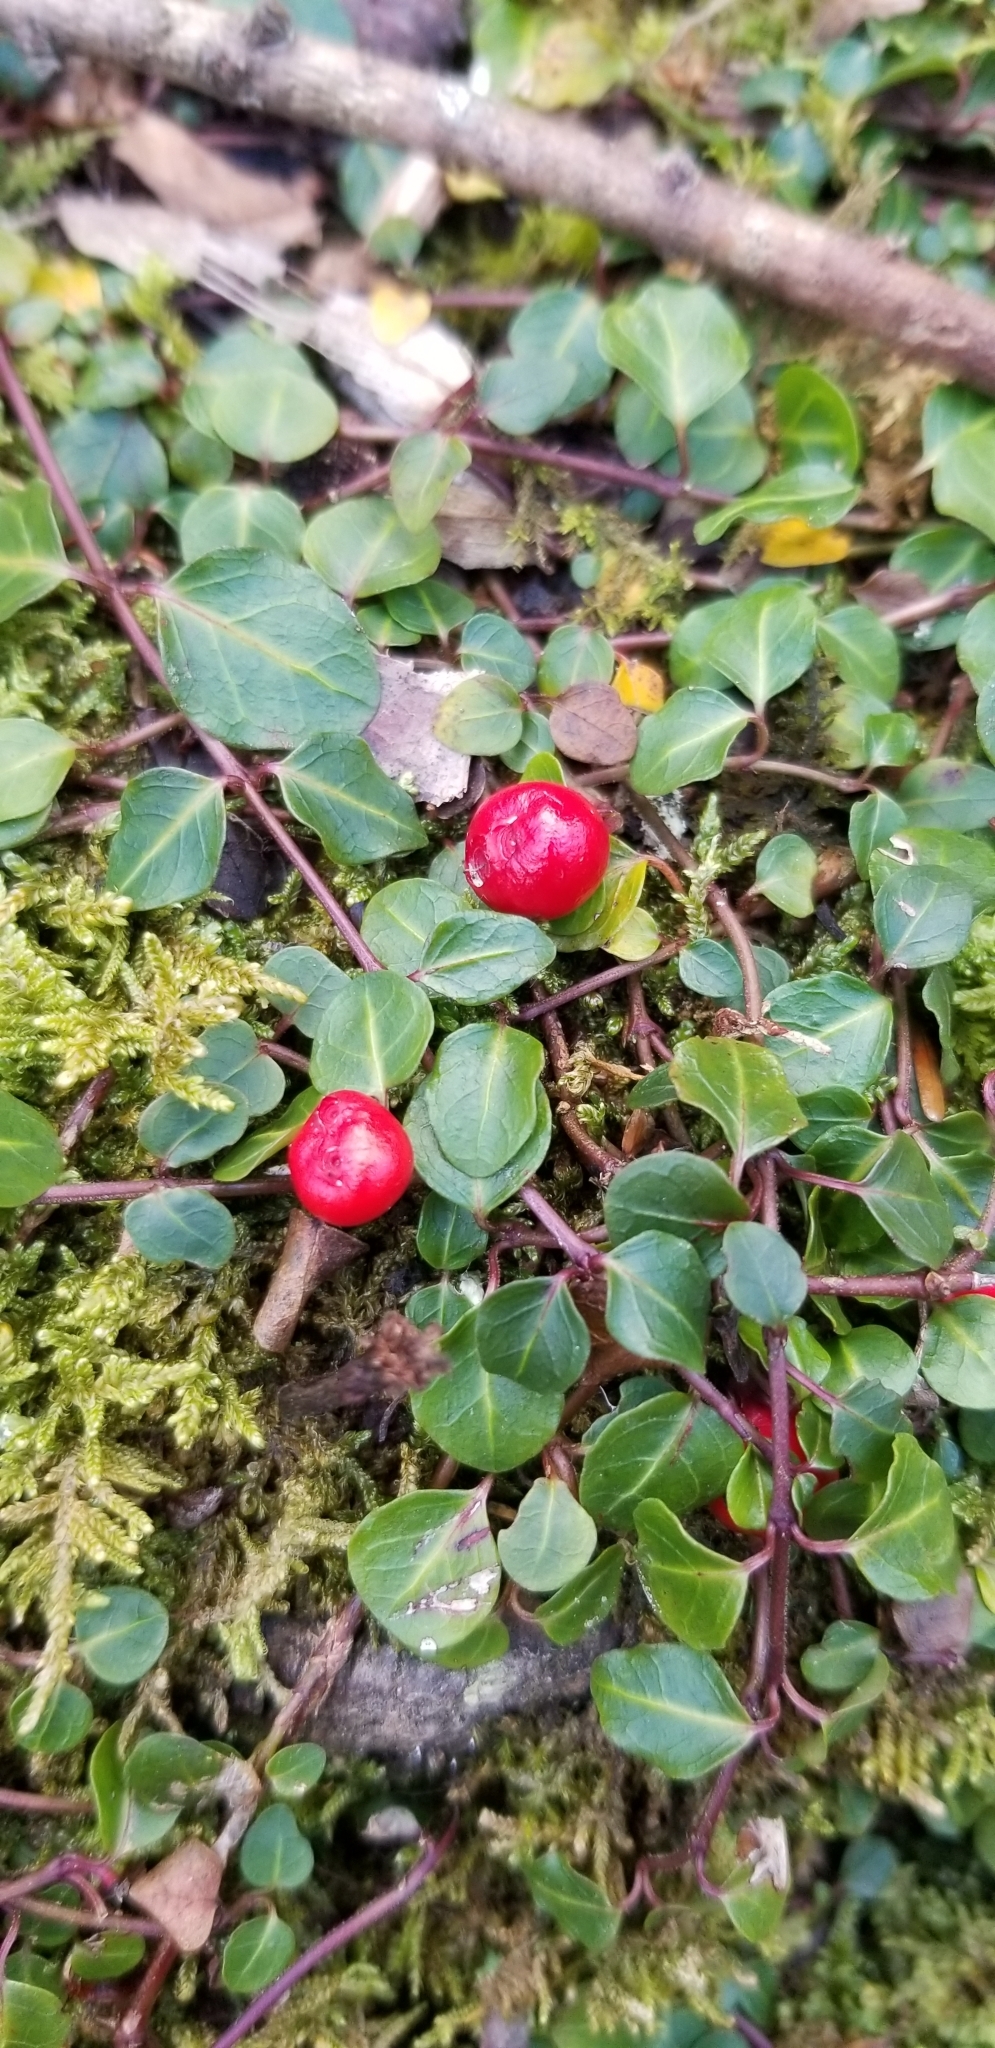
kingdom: Plantae
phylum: Tracheophyta
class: Magnoliopsida
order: Gentianales
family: Rubiaceae
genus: Mitchella
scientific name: Mitchella repens
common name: Partridge-berry
